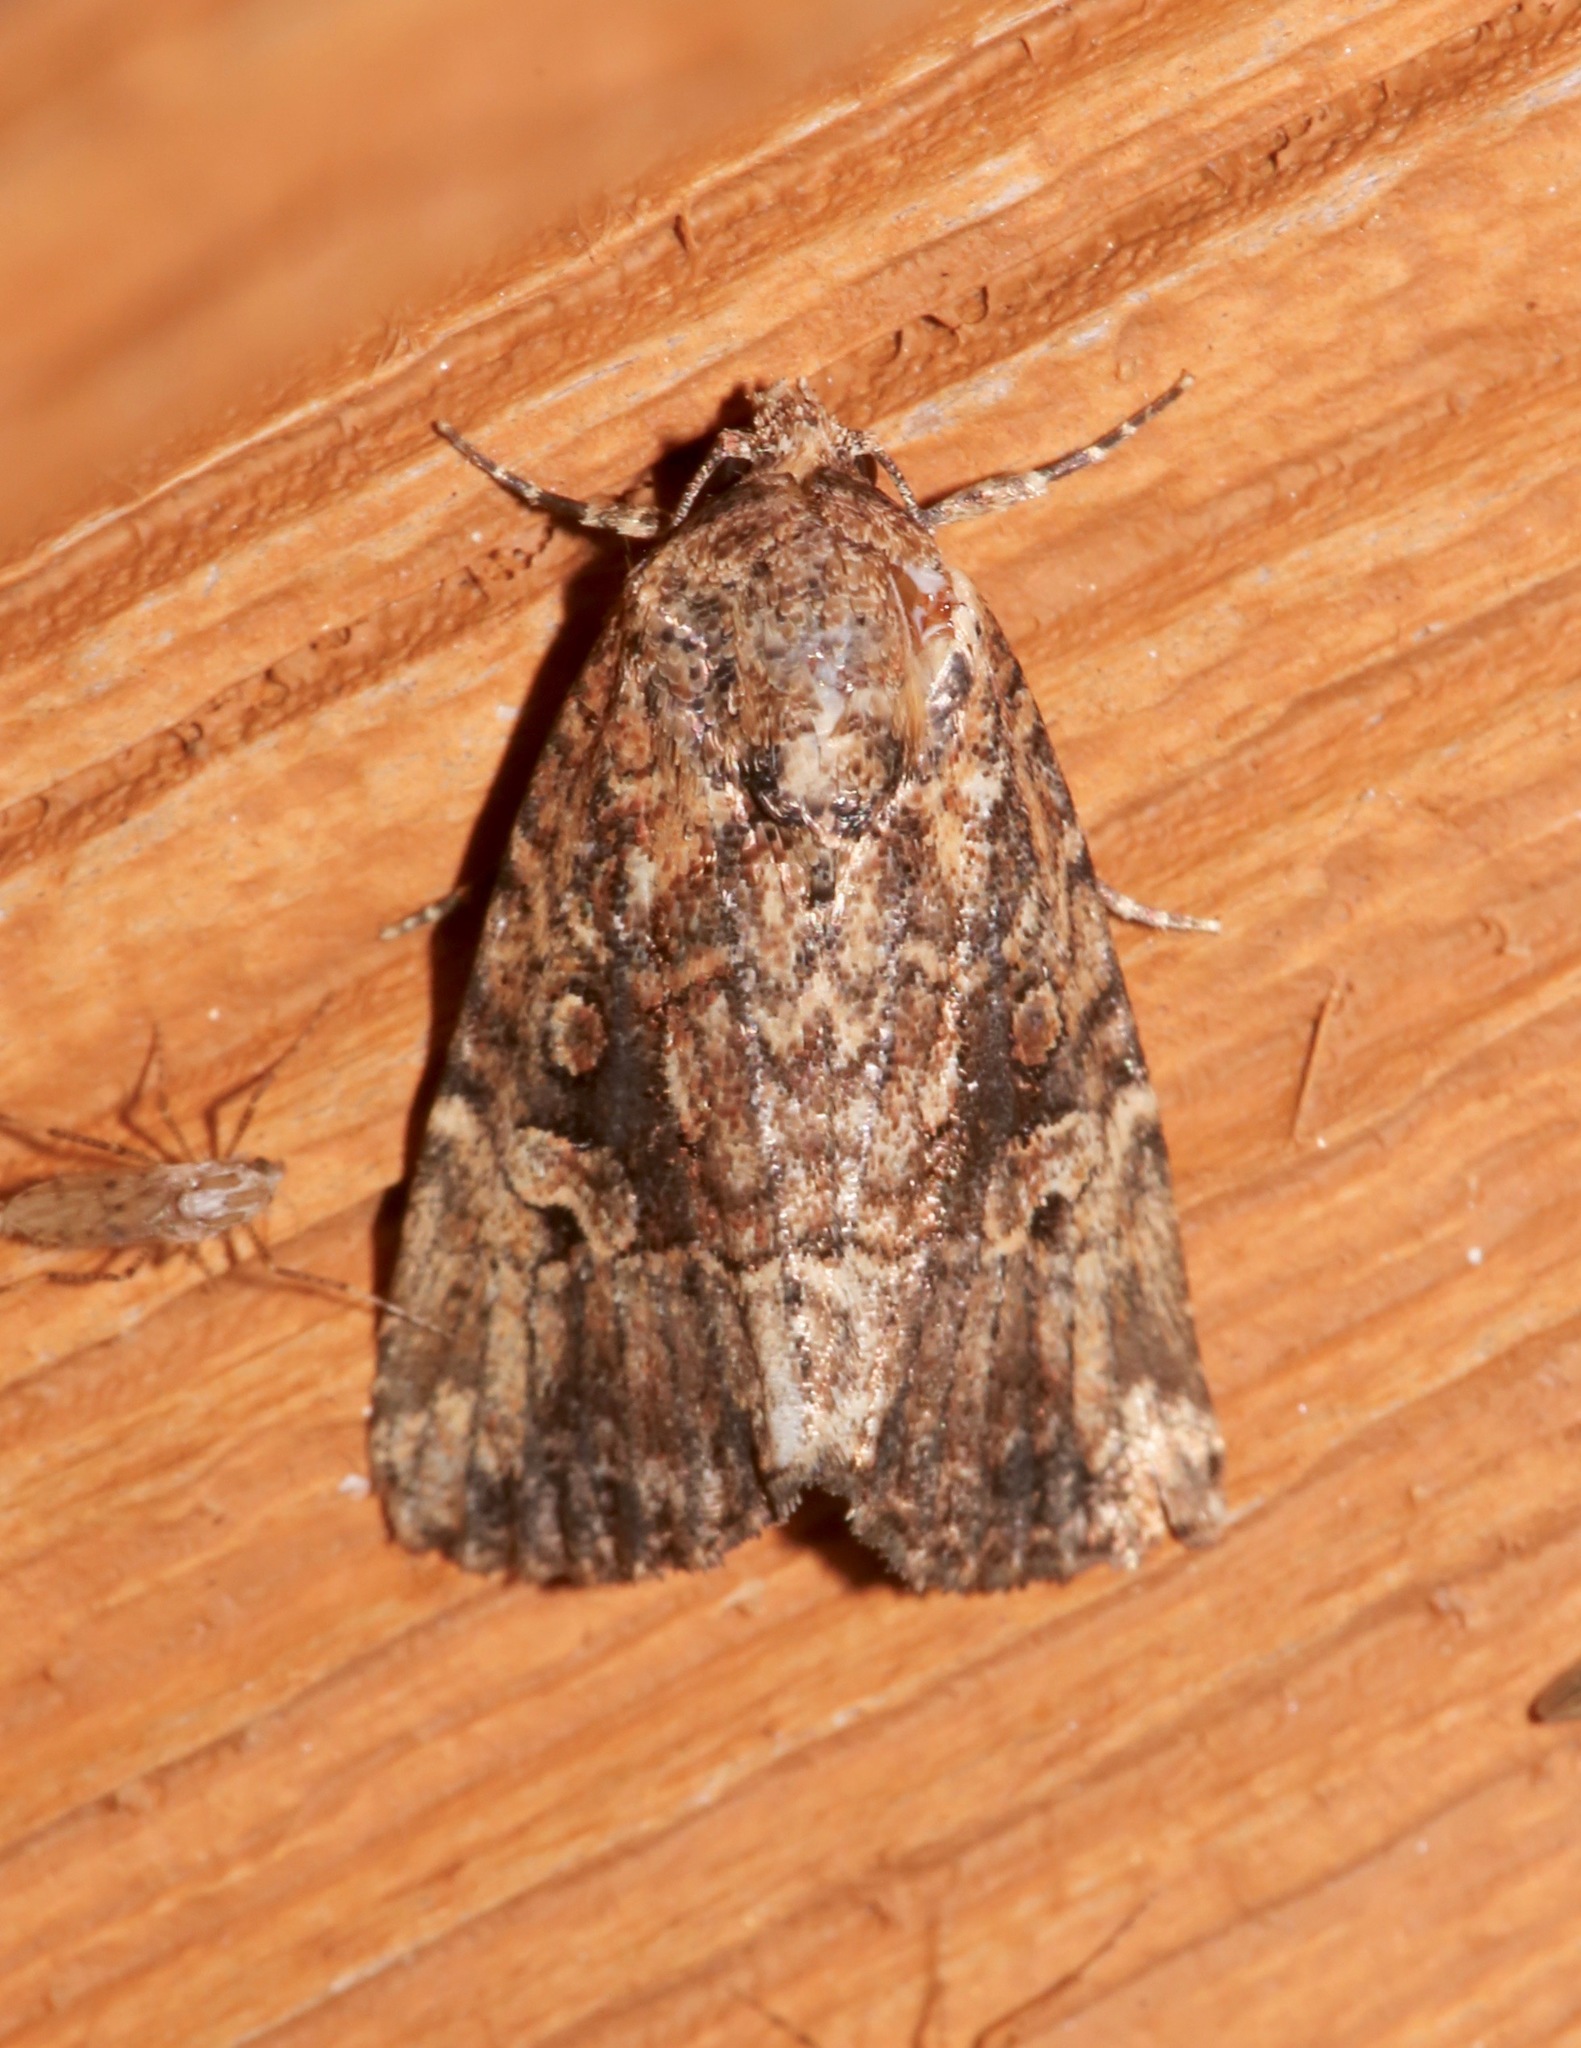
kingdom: Animalia
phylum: Arthropoda
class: Insecta
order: Lepidoptera
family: Noctuidae
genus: Elaphria
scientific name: Elaphria exesa
